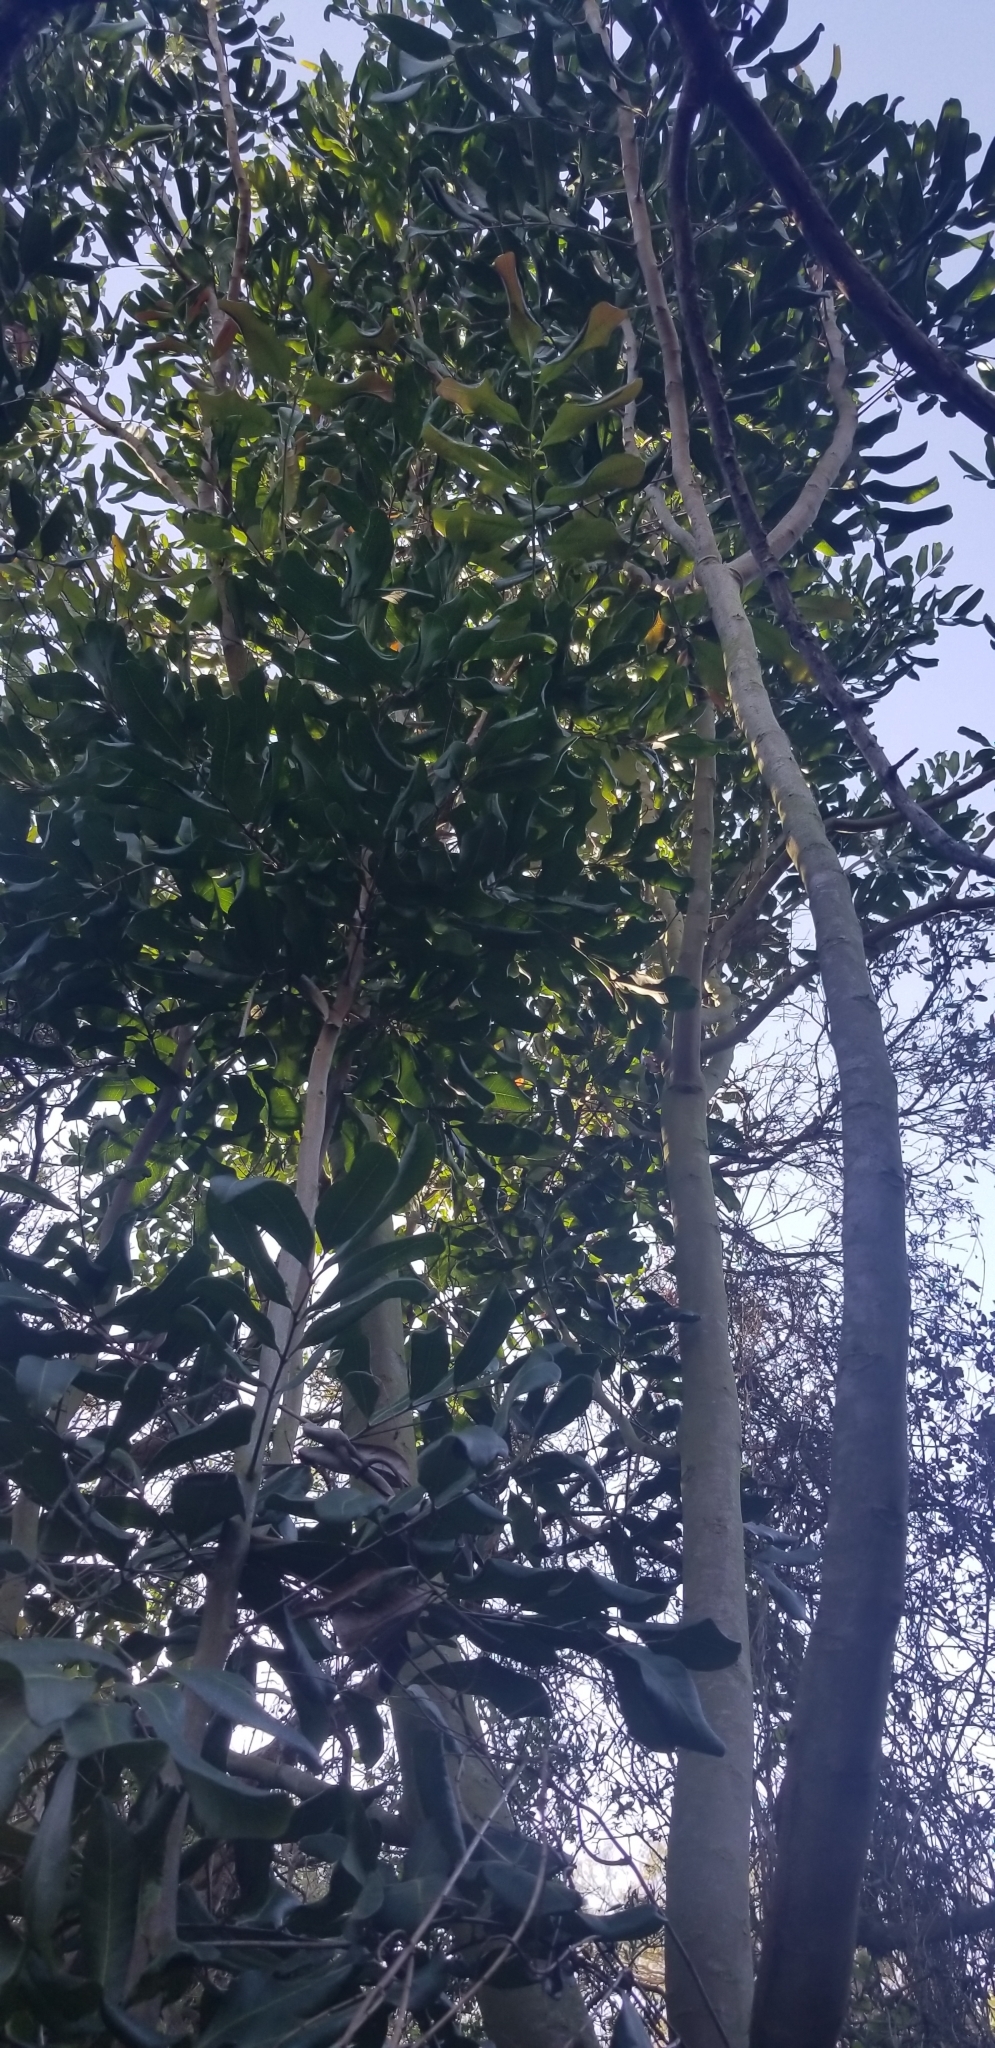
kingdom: Plantae
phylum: Tracheophyta
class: Magnoliopsida
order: Sapindales
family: Sapindaceae
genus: Cupaniopsis
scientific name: Cupaniopsis anacardioides
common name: Carrotwood
